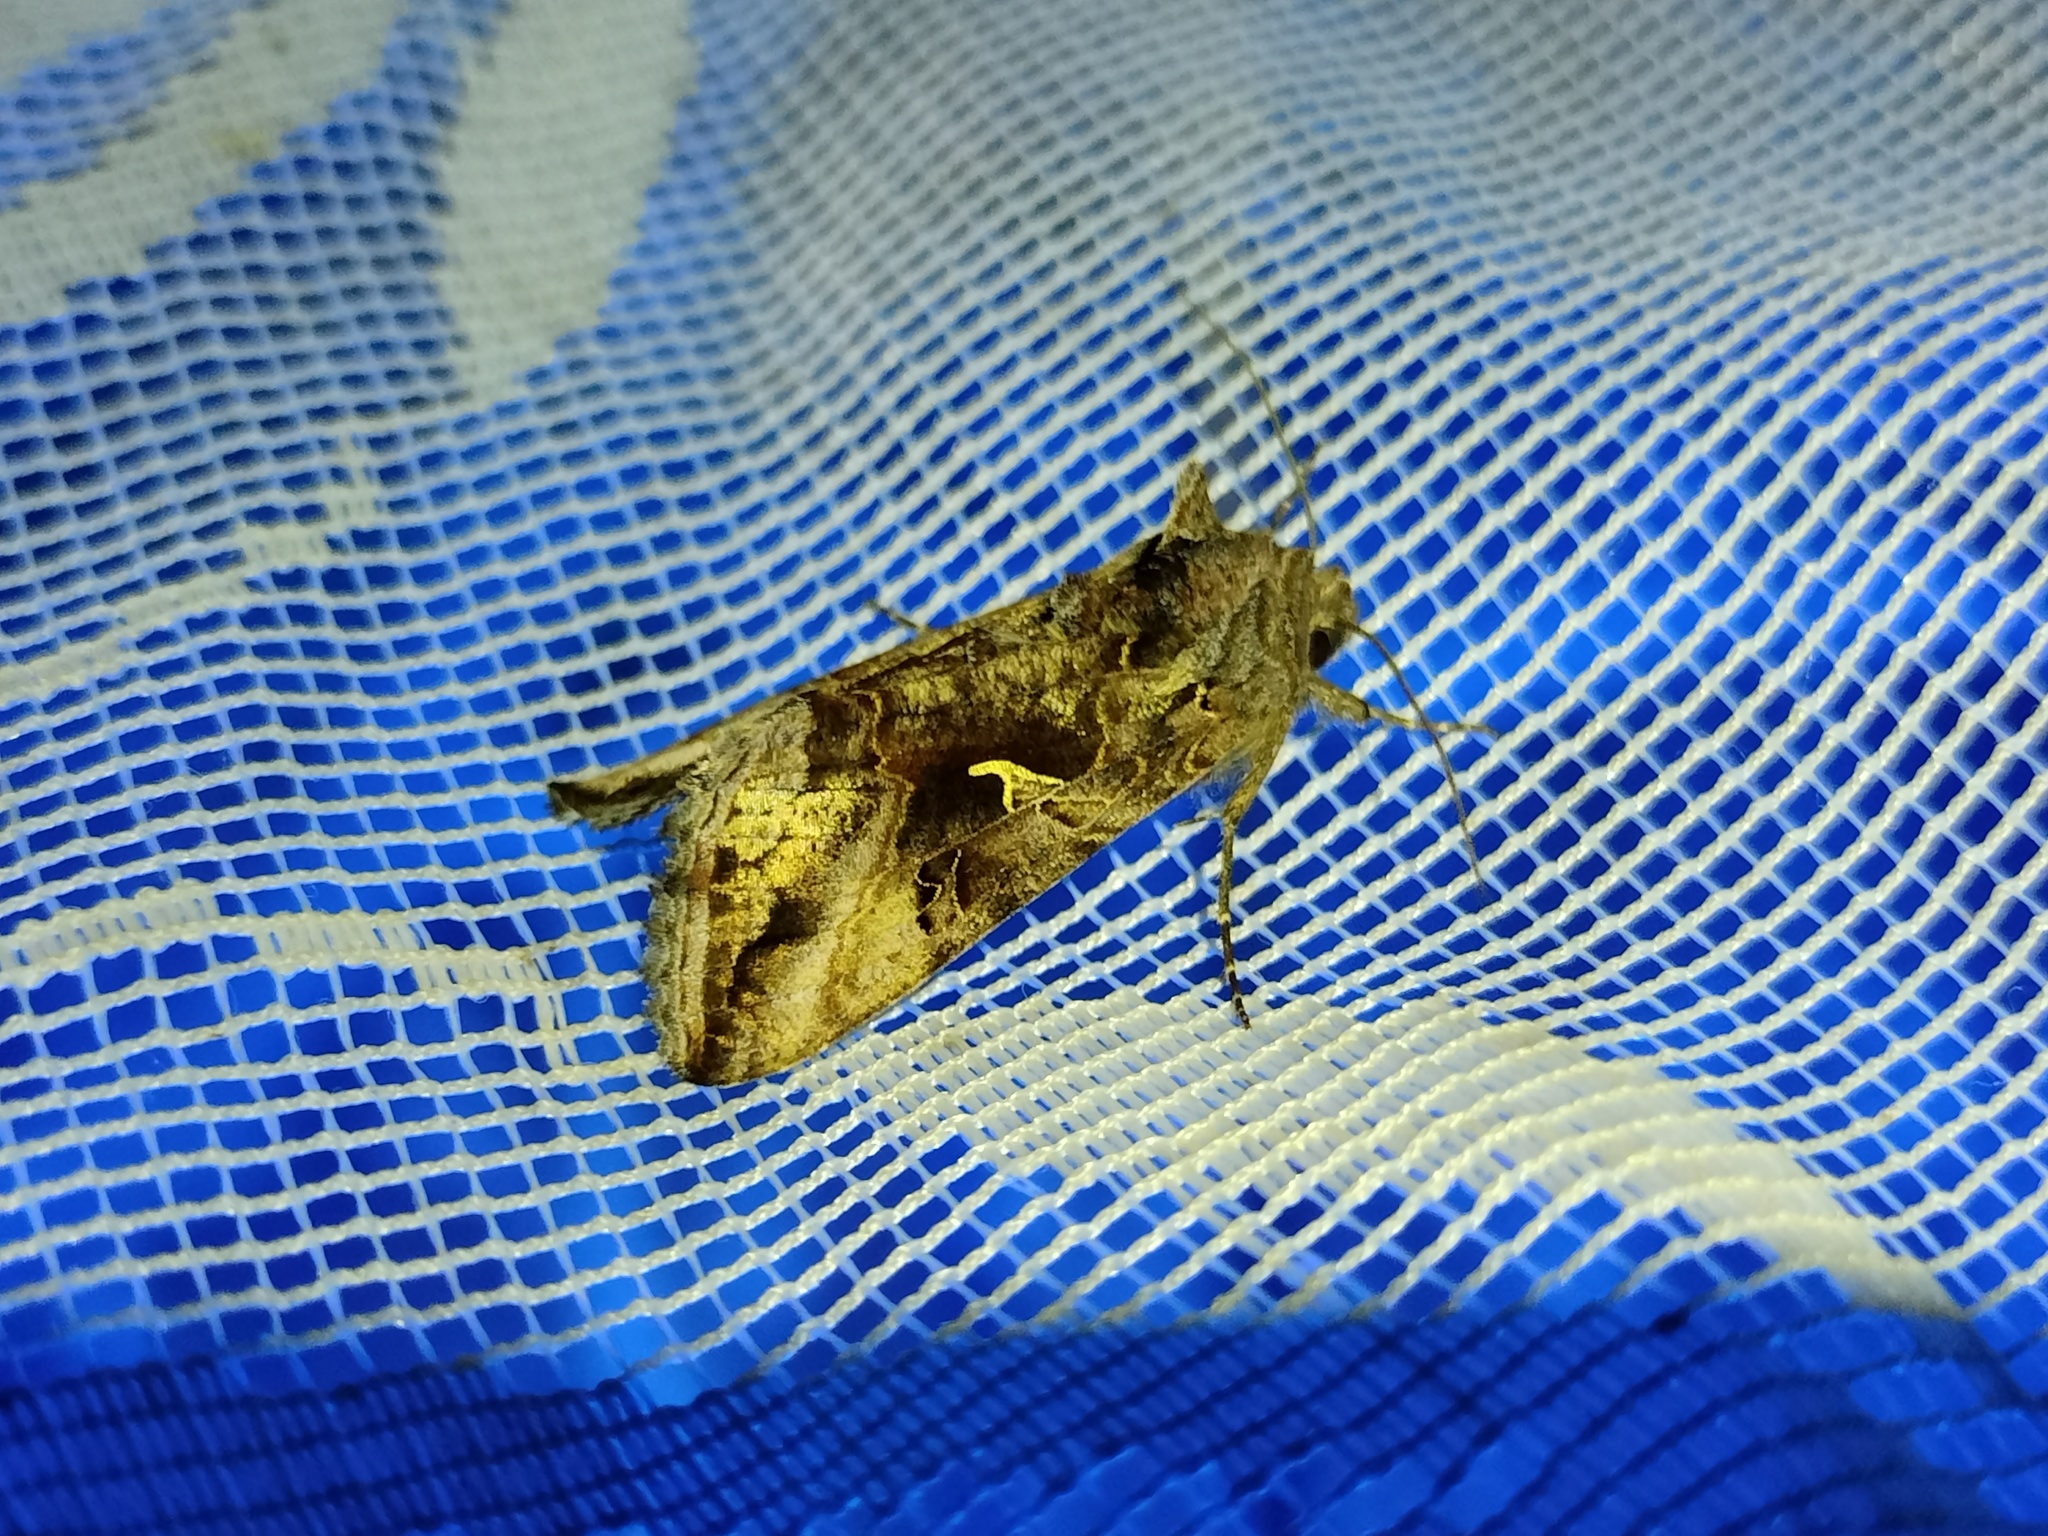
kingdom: Animalia
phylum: Arthropoda
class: Insecta
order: Lepidoptera
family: Noctuidae
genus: Autographa
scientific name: Autographa gamma
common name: Silver y
